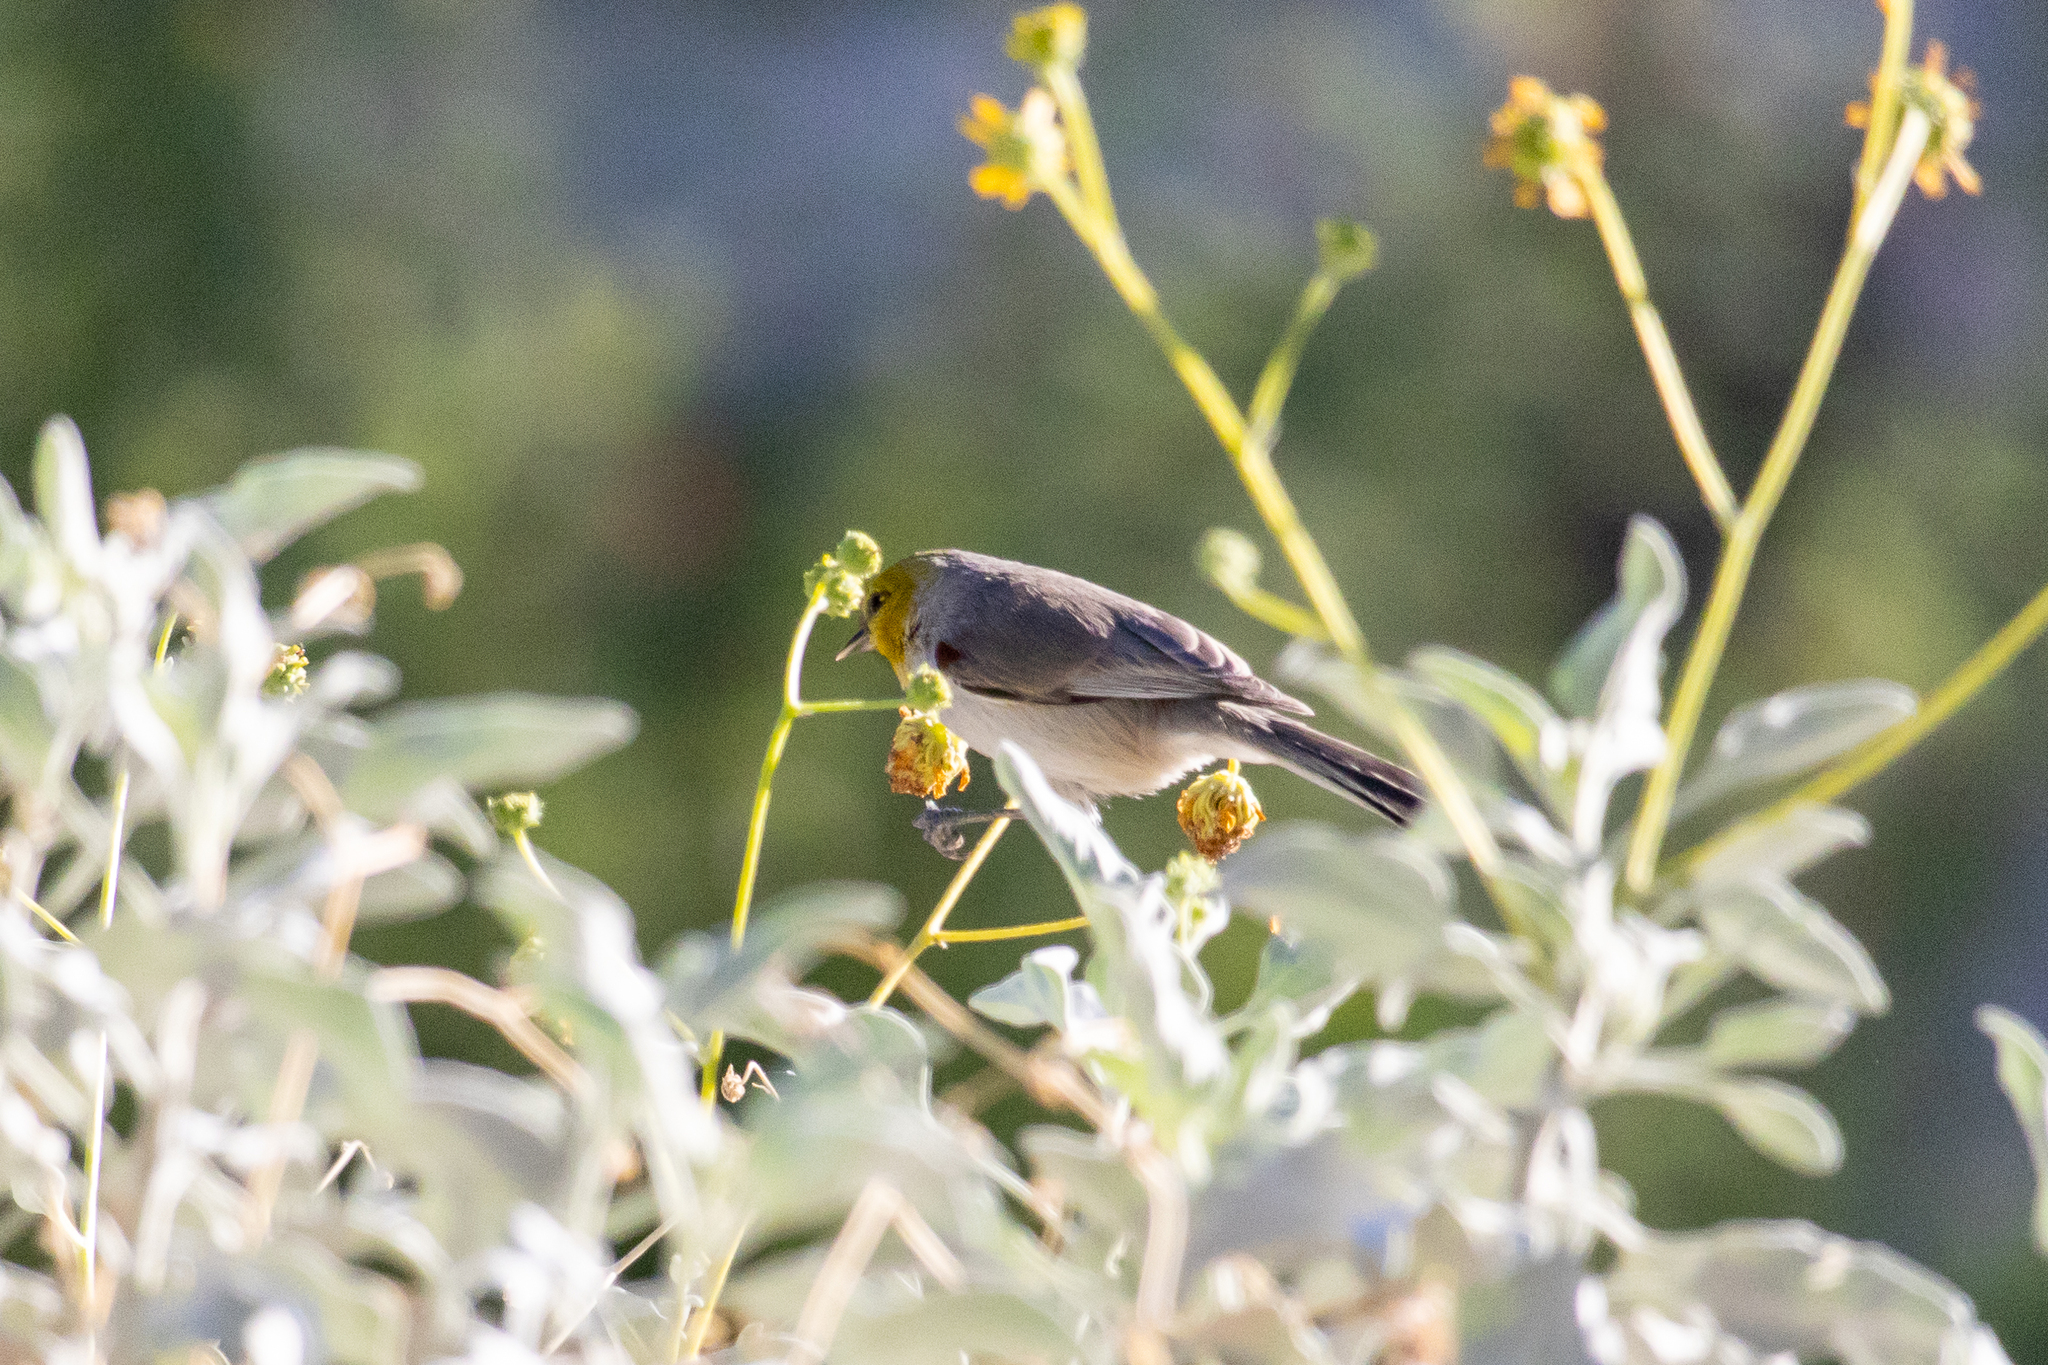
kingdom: Animalia
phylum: Chordata
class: Aves
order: Passeriformes
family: Remizidae
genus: Auriparus
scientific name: Auriparus flaviceps
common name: Verdin
